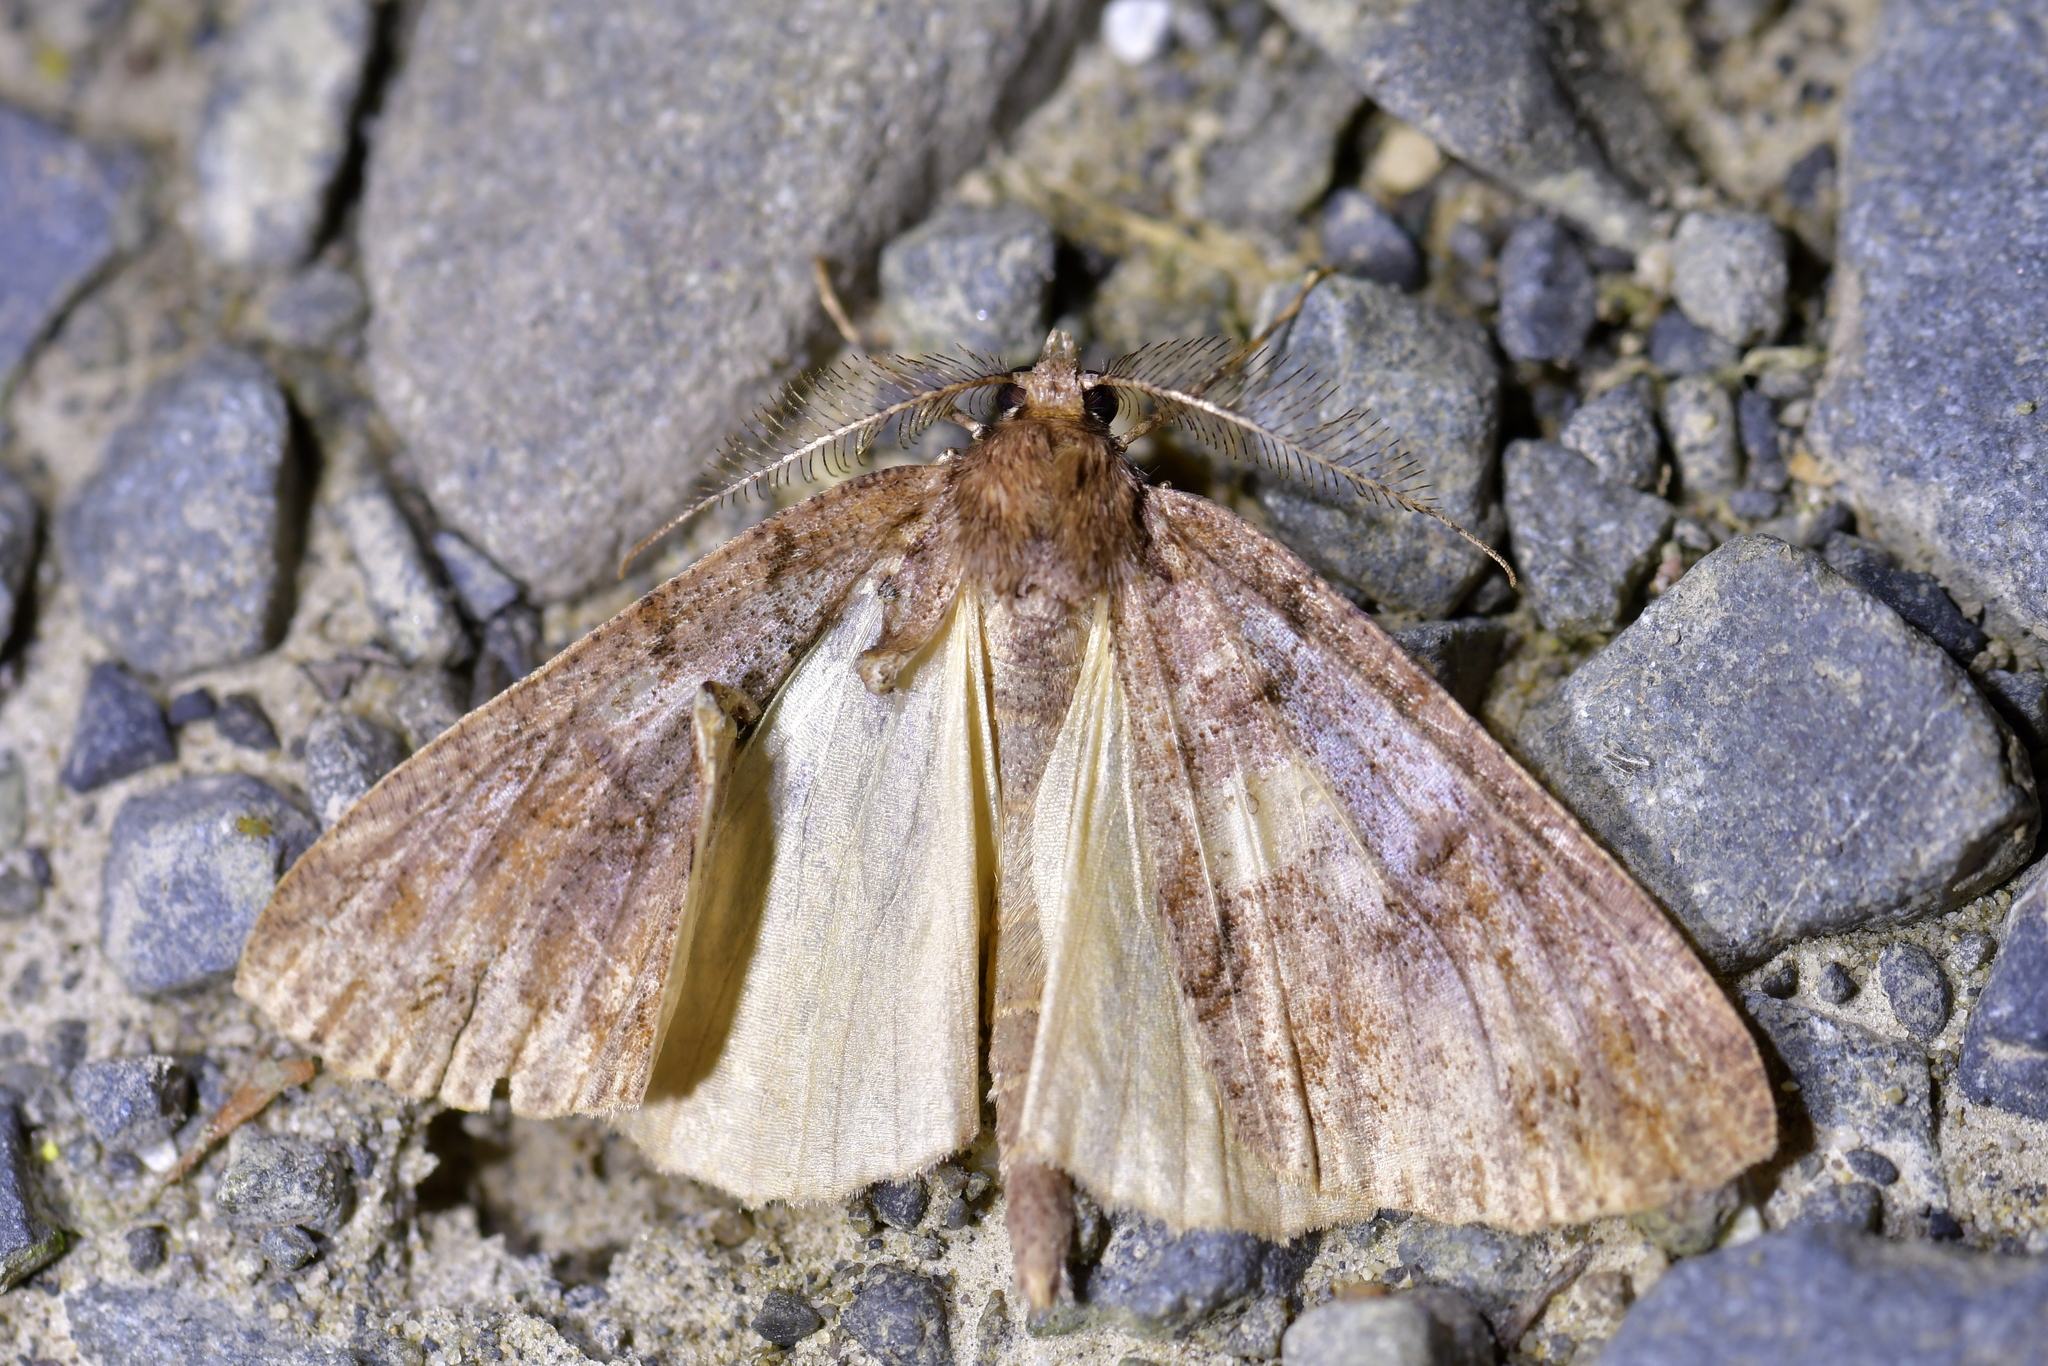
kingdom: Animalia
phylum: Arthropoda
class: Insecta
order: Lepidoptera
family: Geometridae
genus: Pseudocoremia
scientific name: Pseudocoremia suavis
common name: Common forest looper
